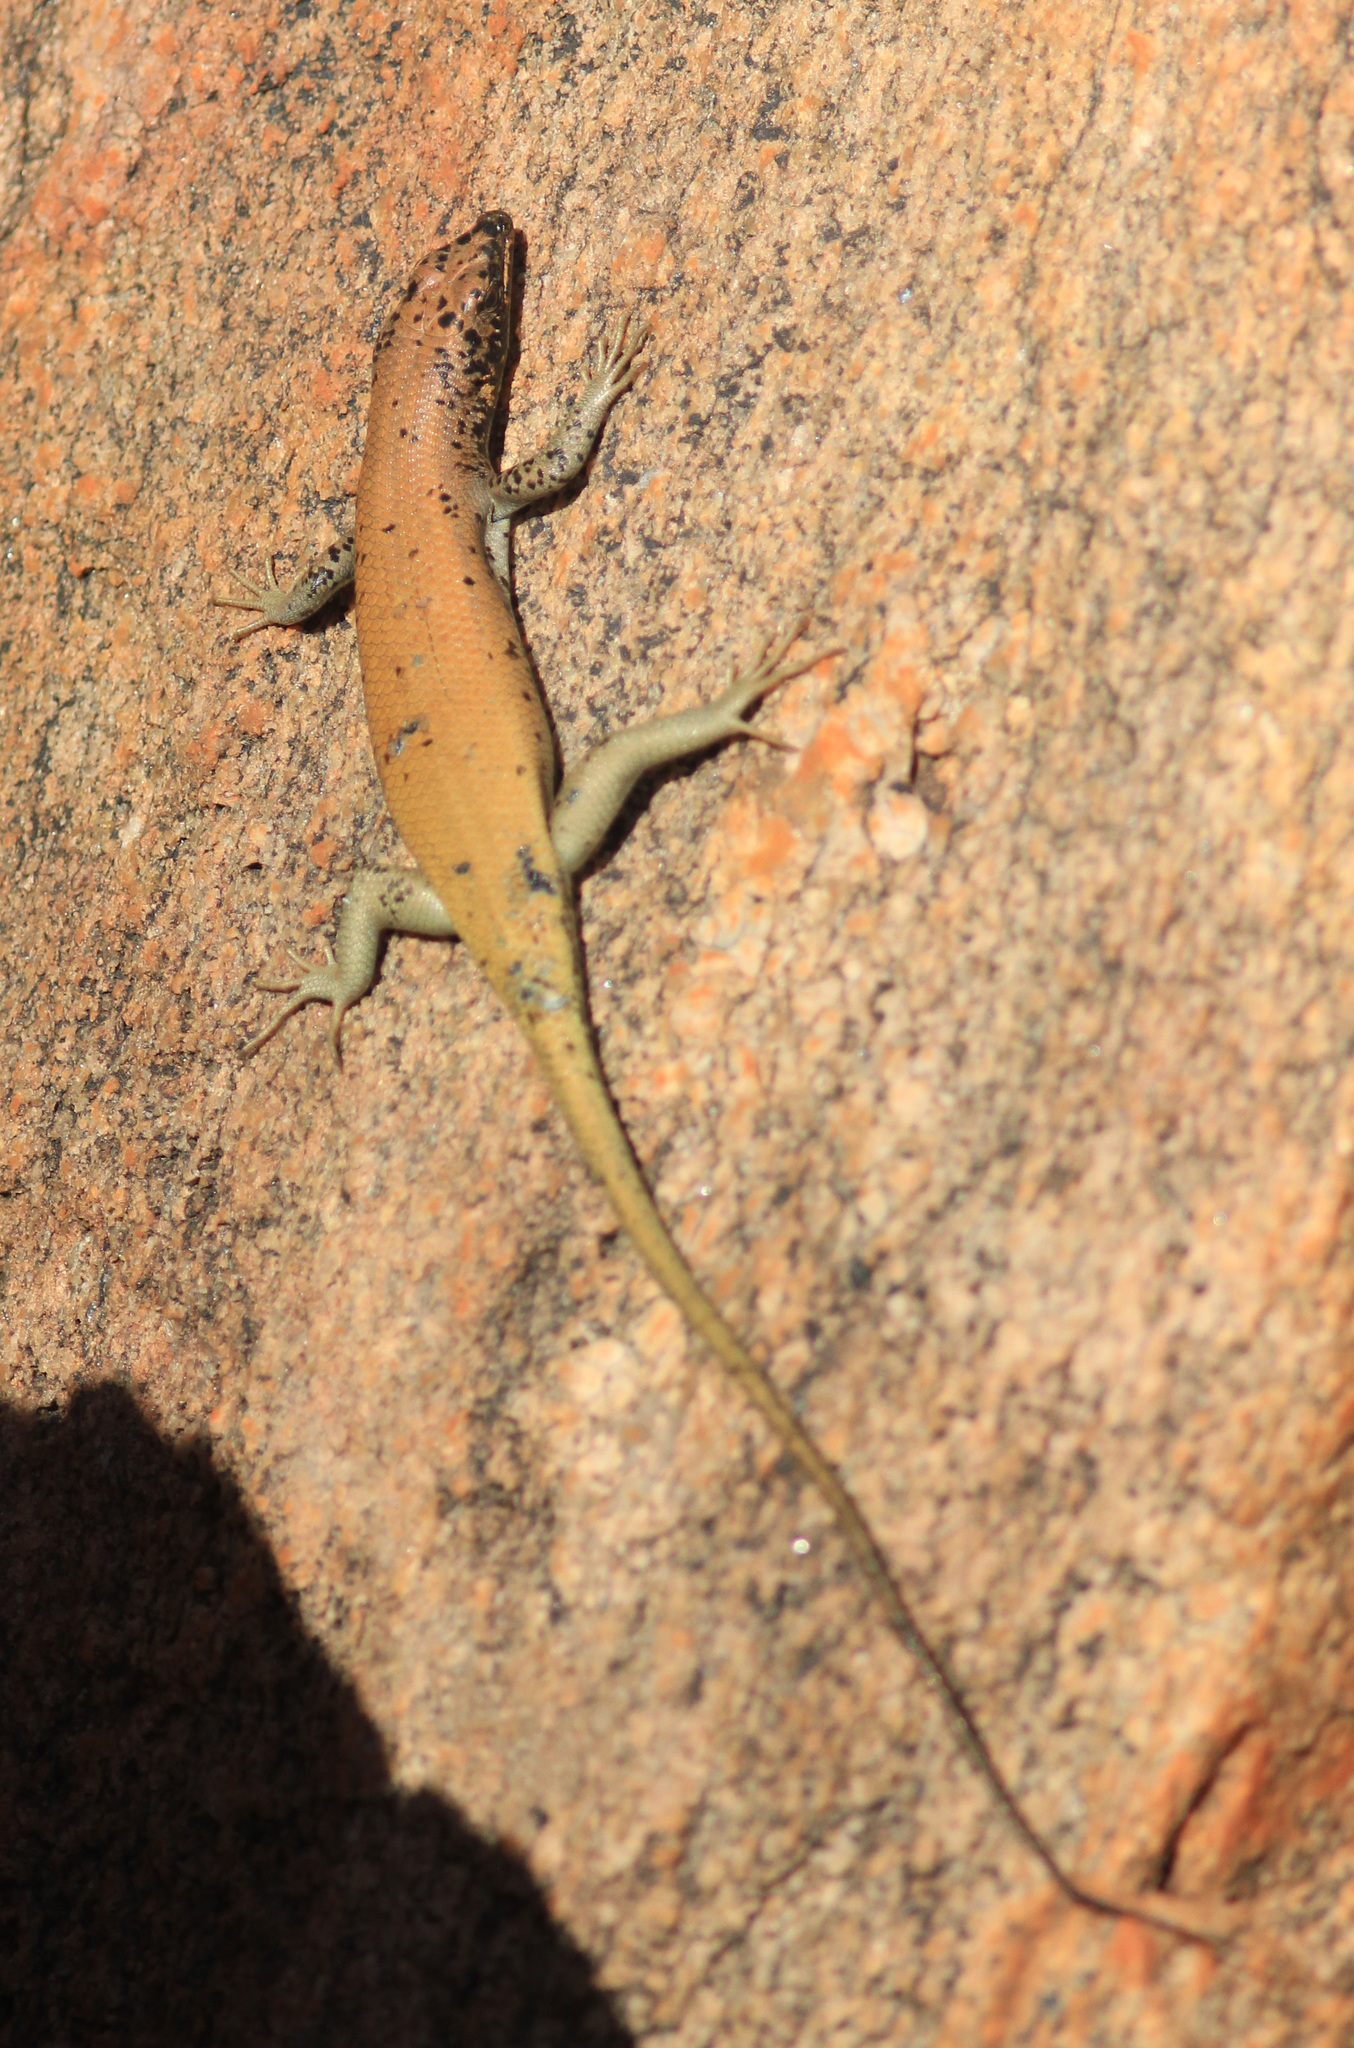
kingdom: Animalia
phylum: Chordata
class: Squamata
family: Scincidae
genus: Trachylepis
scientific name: Trachylepis sulcata
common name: Western rock skink
